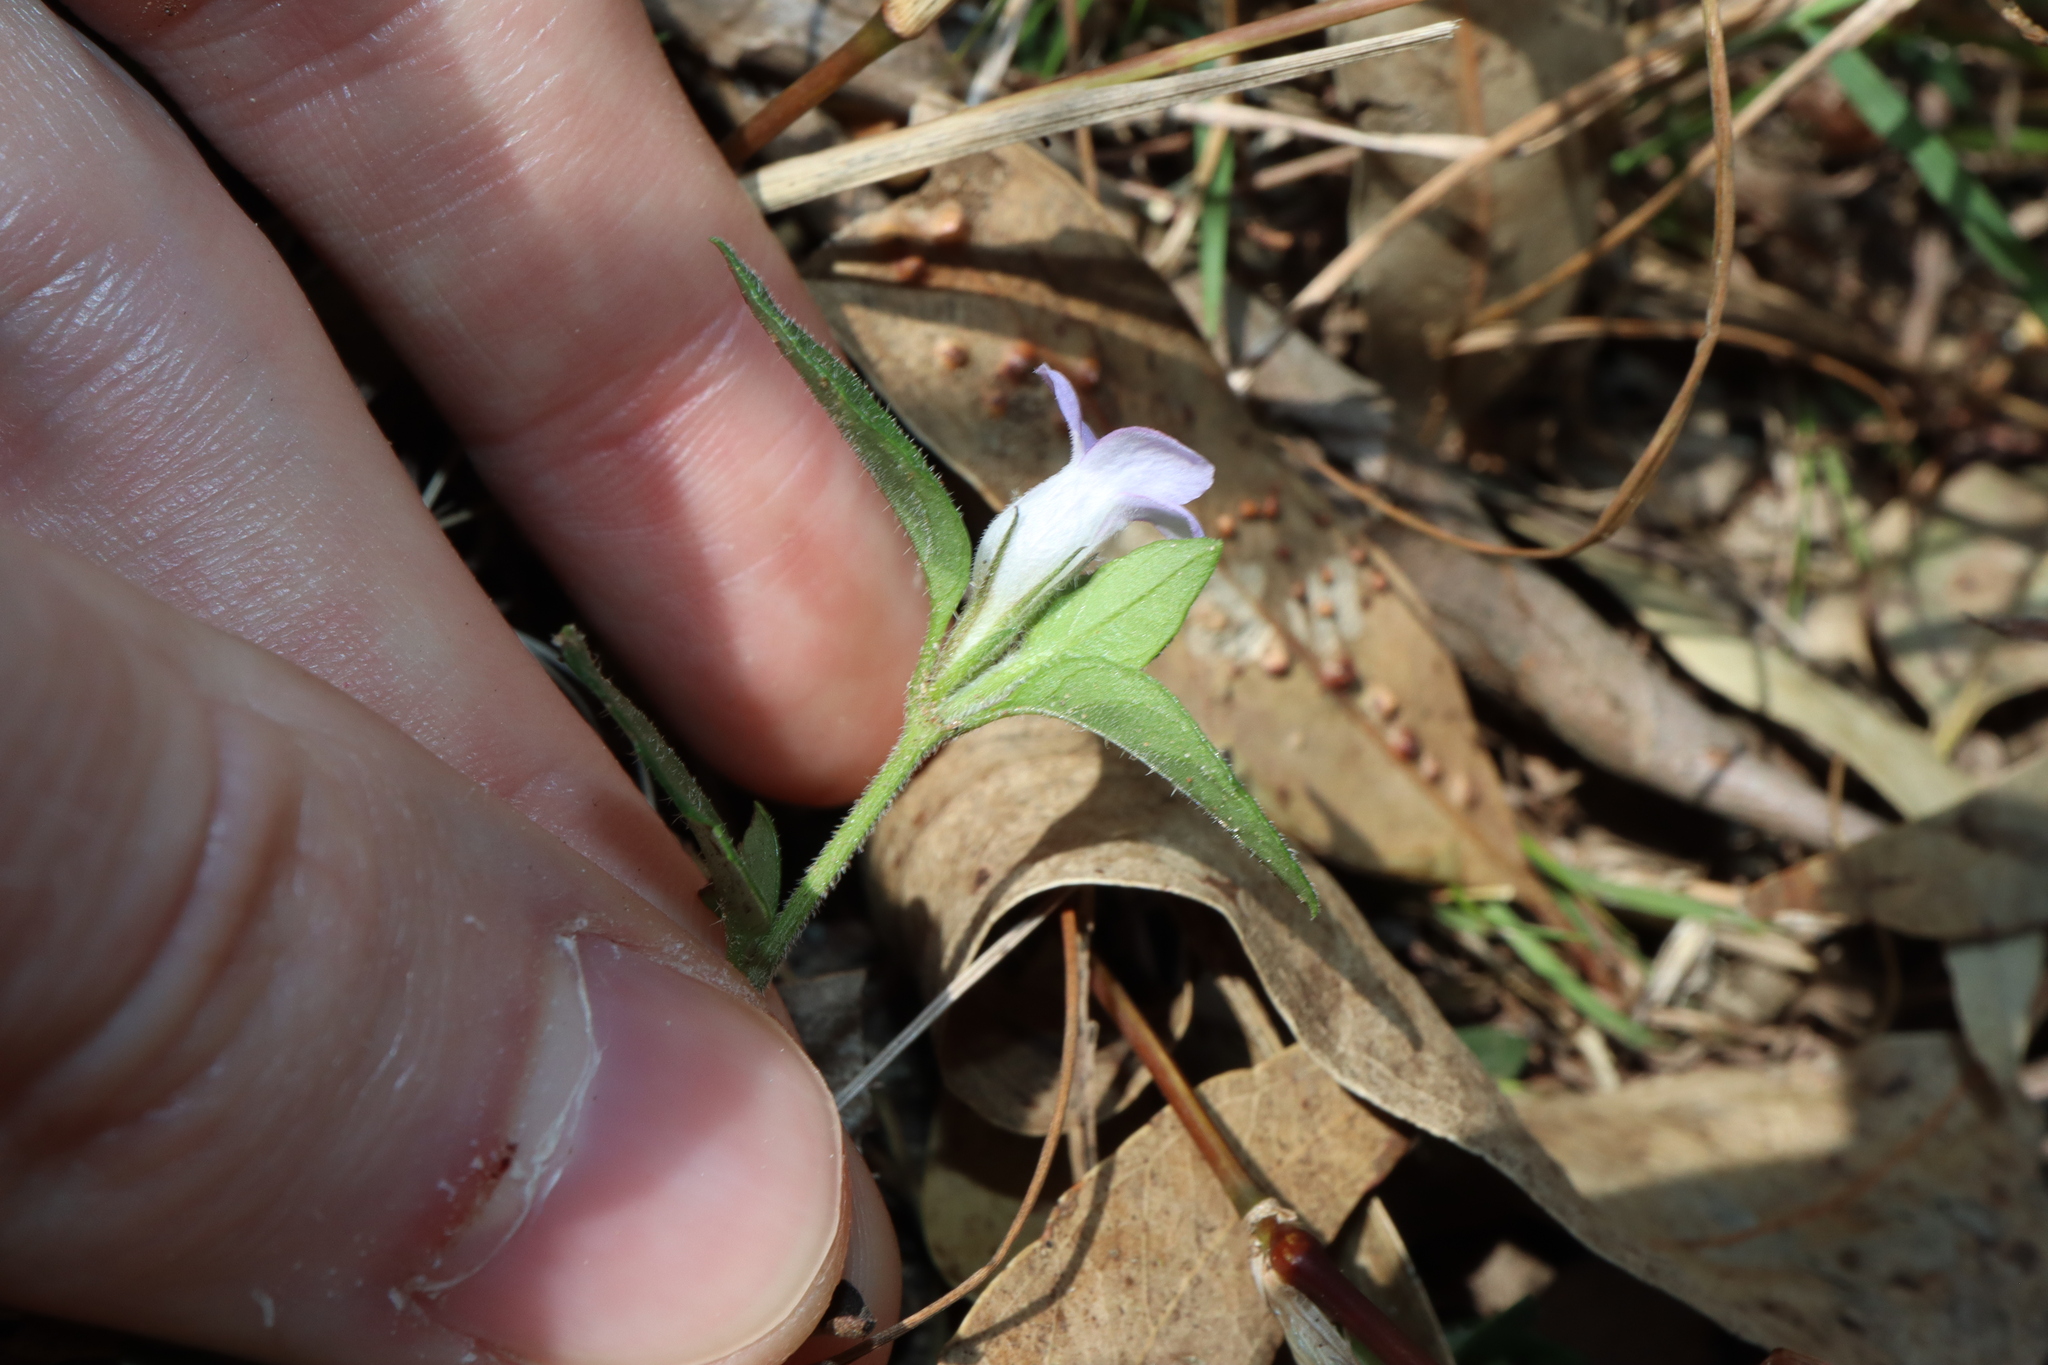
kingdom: Plantae
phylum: Tracheophyta
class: Magnoliopsida
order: Lamiales
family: Acanthaceae
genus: Brunoniella
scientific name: Brunoniella australis
